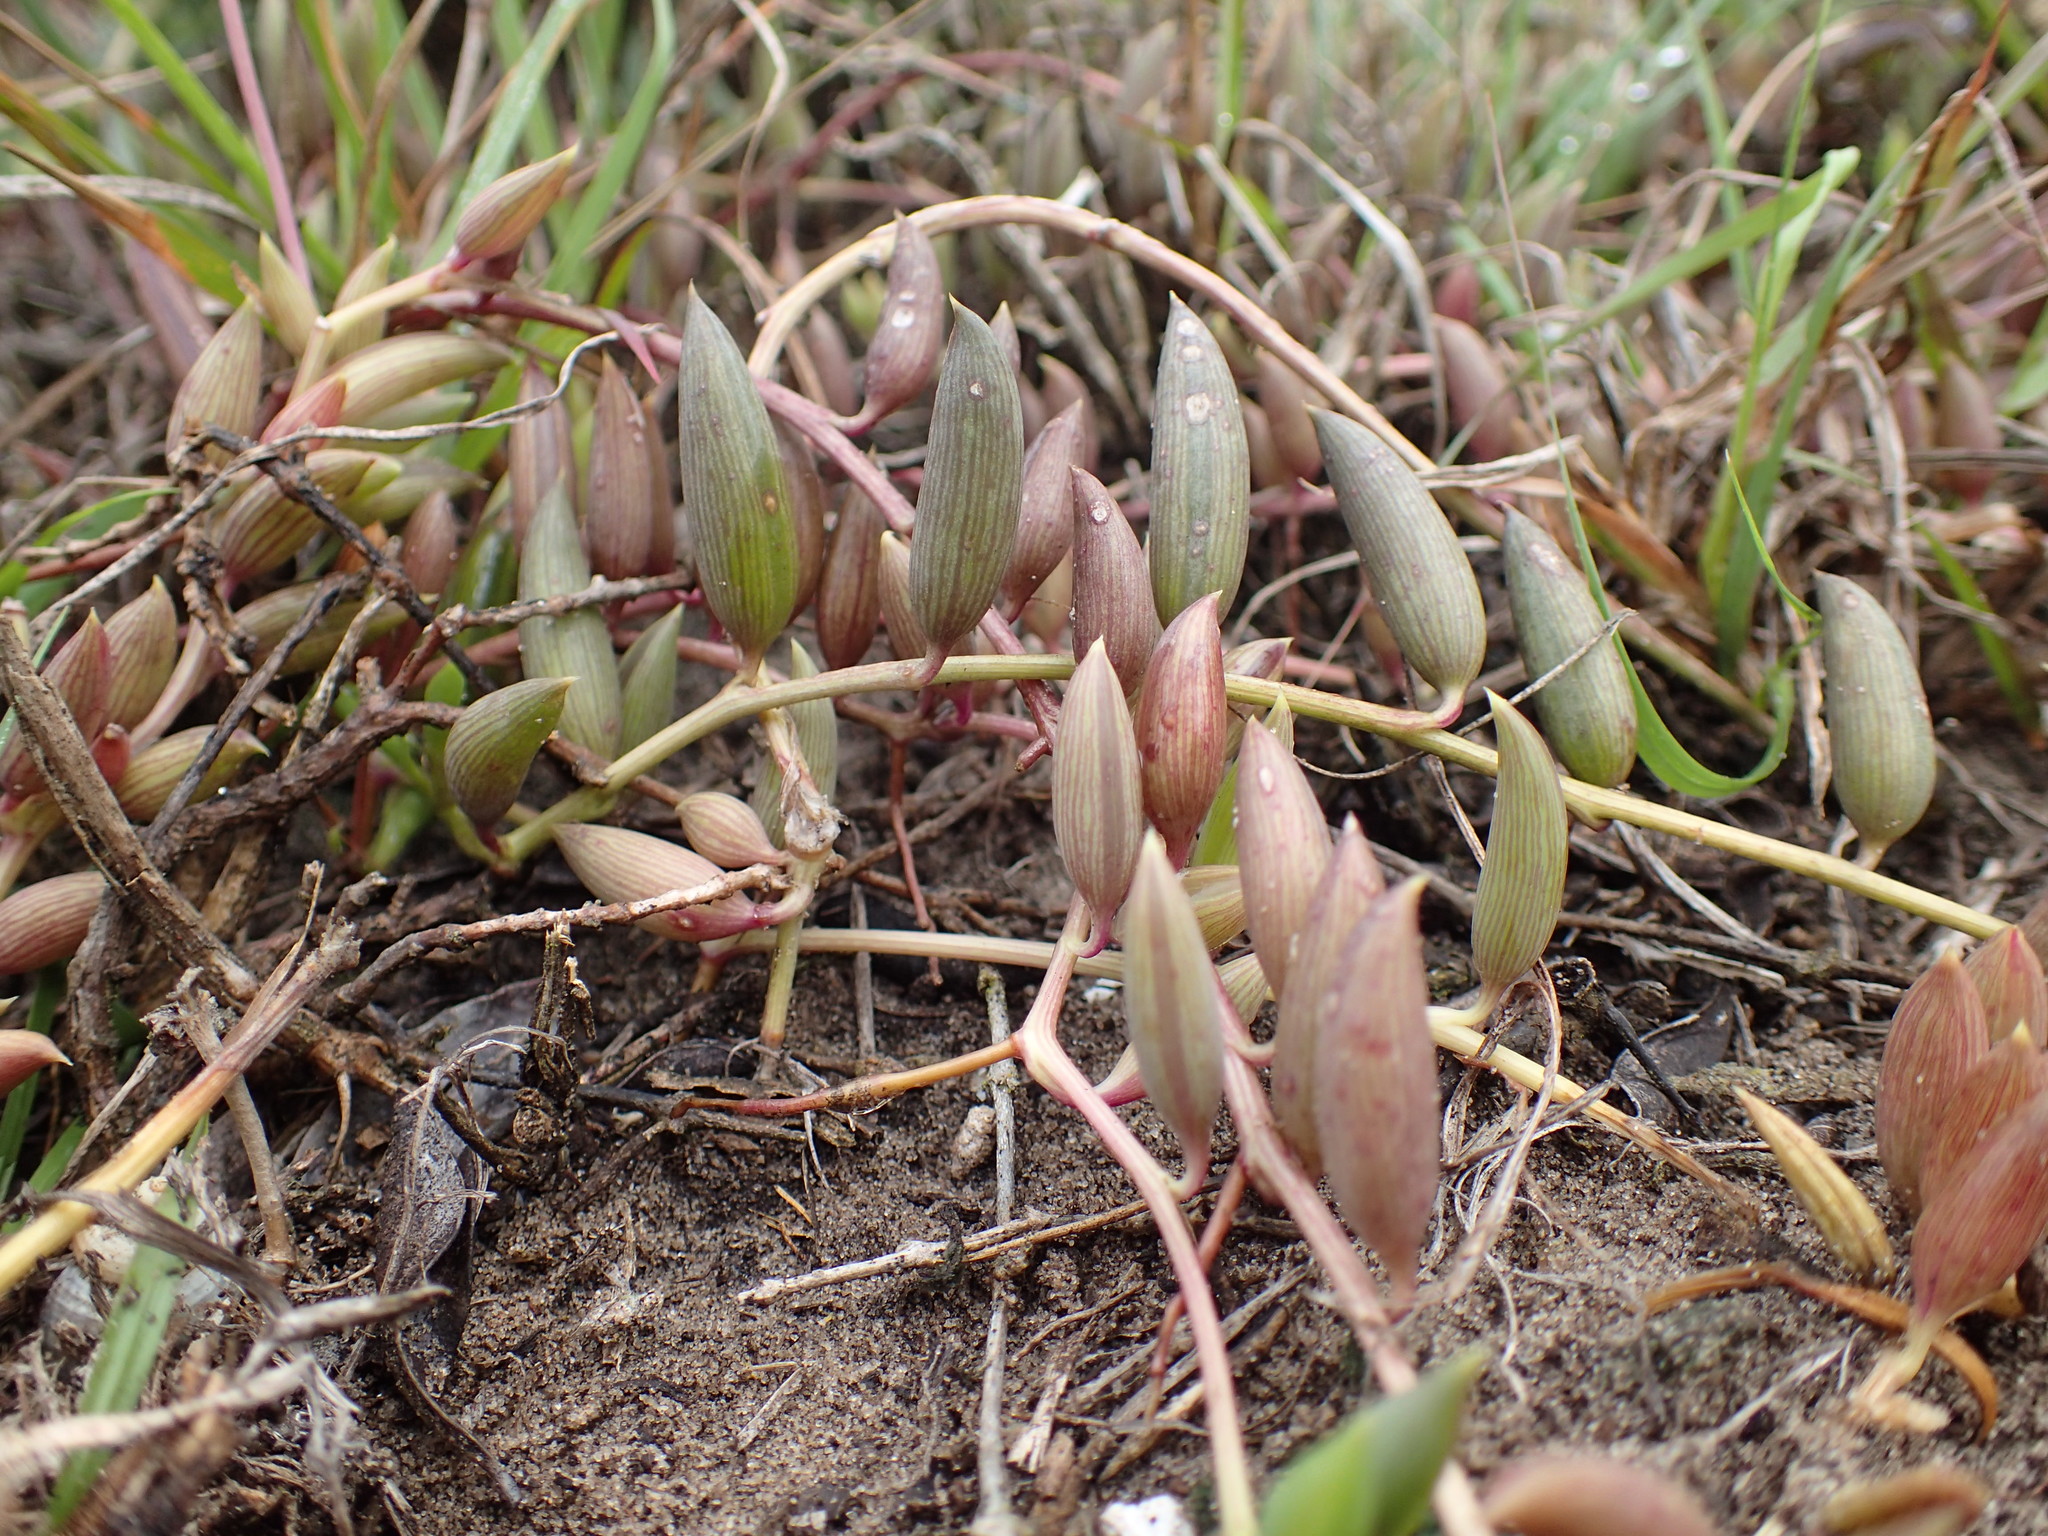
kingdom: Plantae
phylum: Tracheophyta
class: Magnoliopsida
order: Asterales
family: Asteraceae
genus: Curio
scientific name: Curio radicans
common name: Creeping-berry
